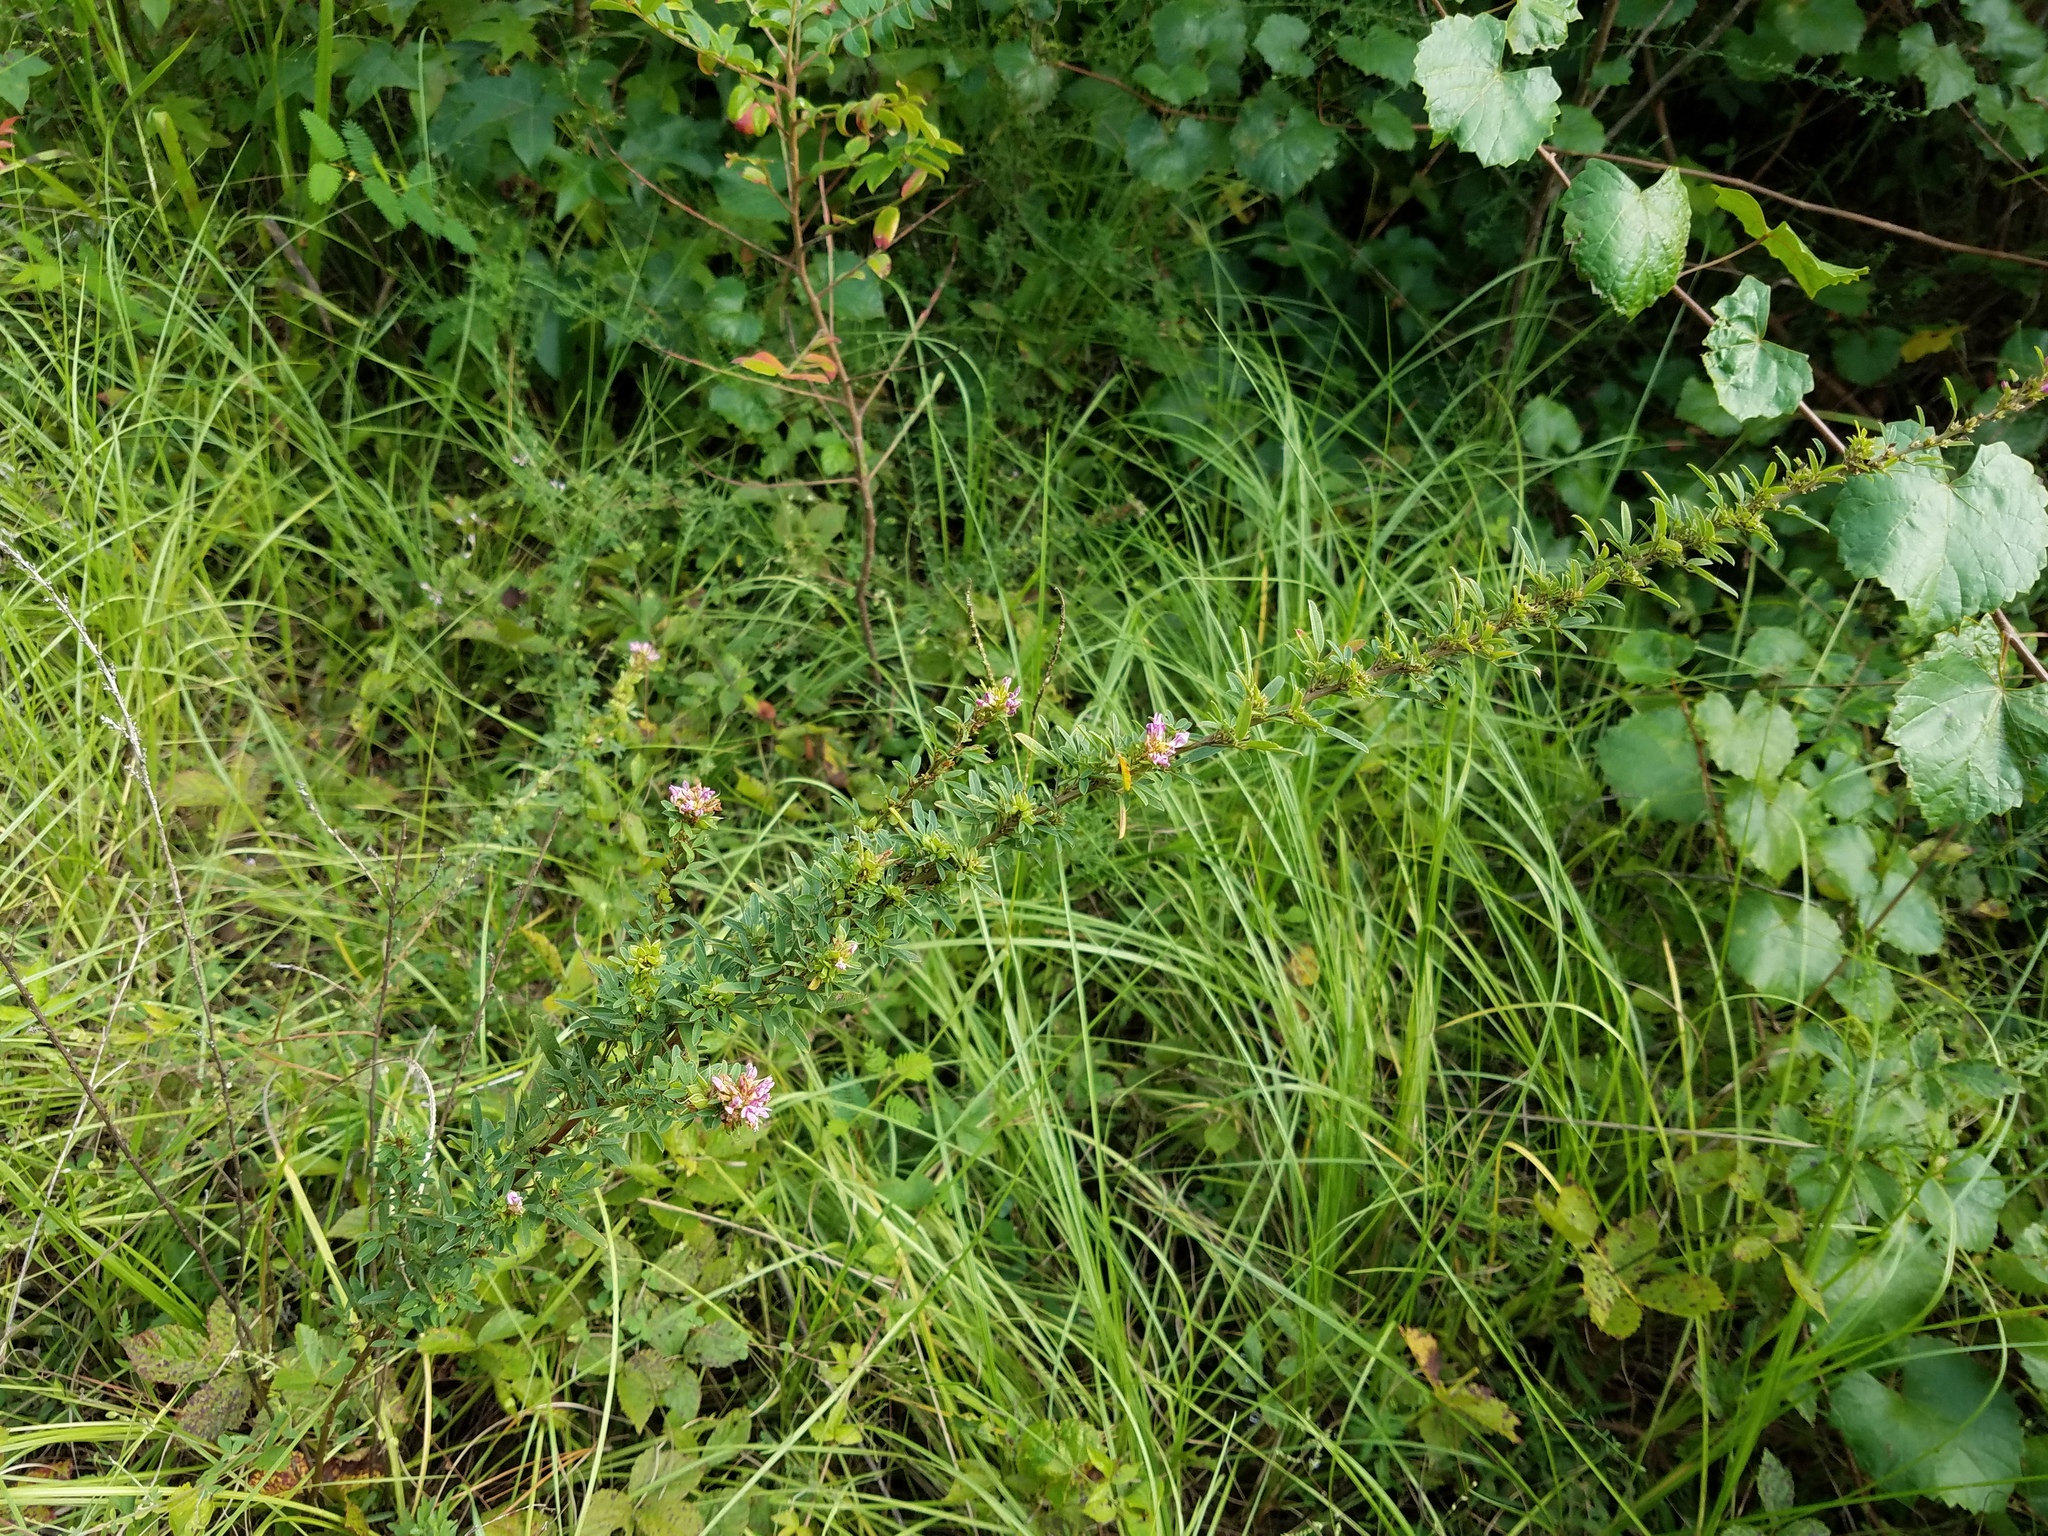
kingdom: Plantae
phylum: Tracheophyta
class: Magnoliopsida
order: Fabales
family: Fabaceae
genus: Lespedeza
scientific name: Lespedeza virginica
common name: Slender bush-clover
